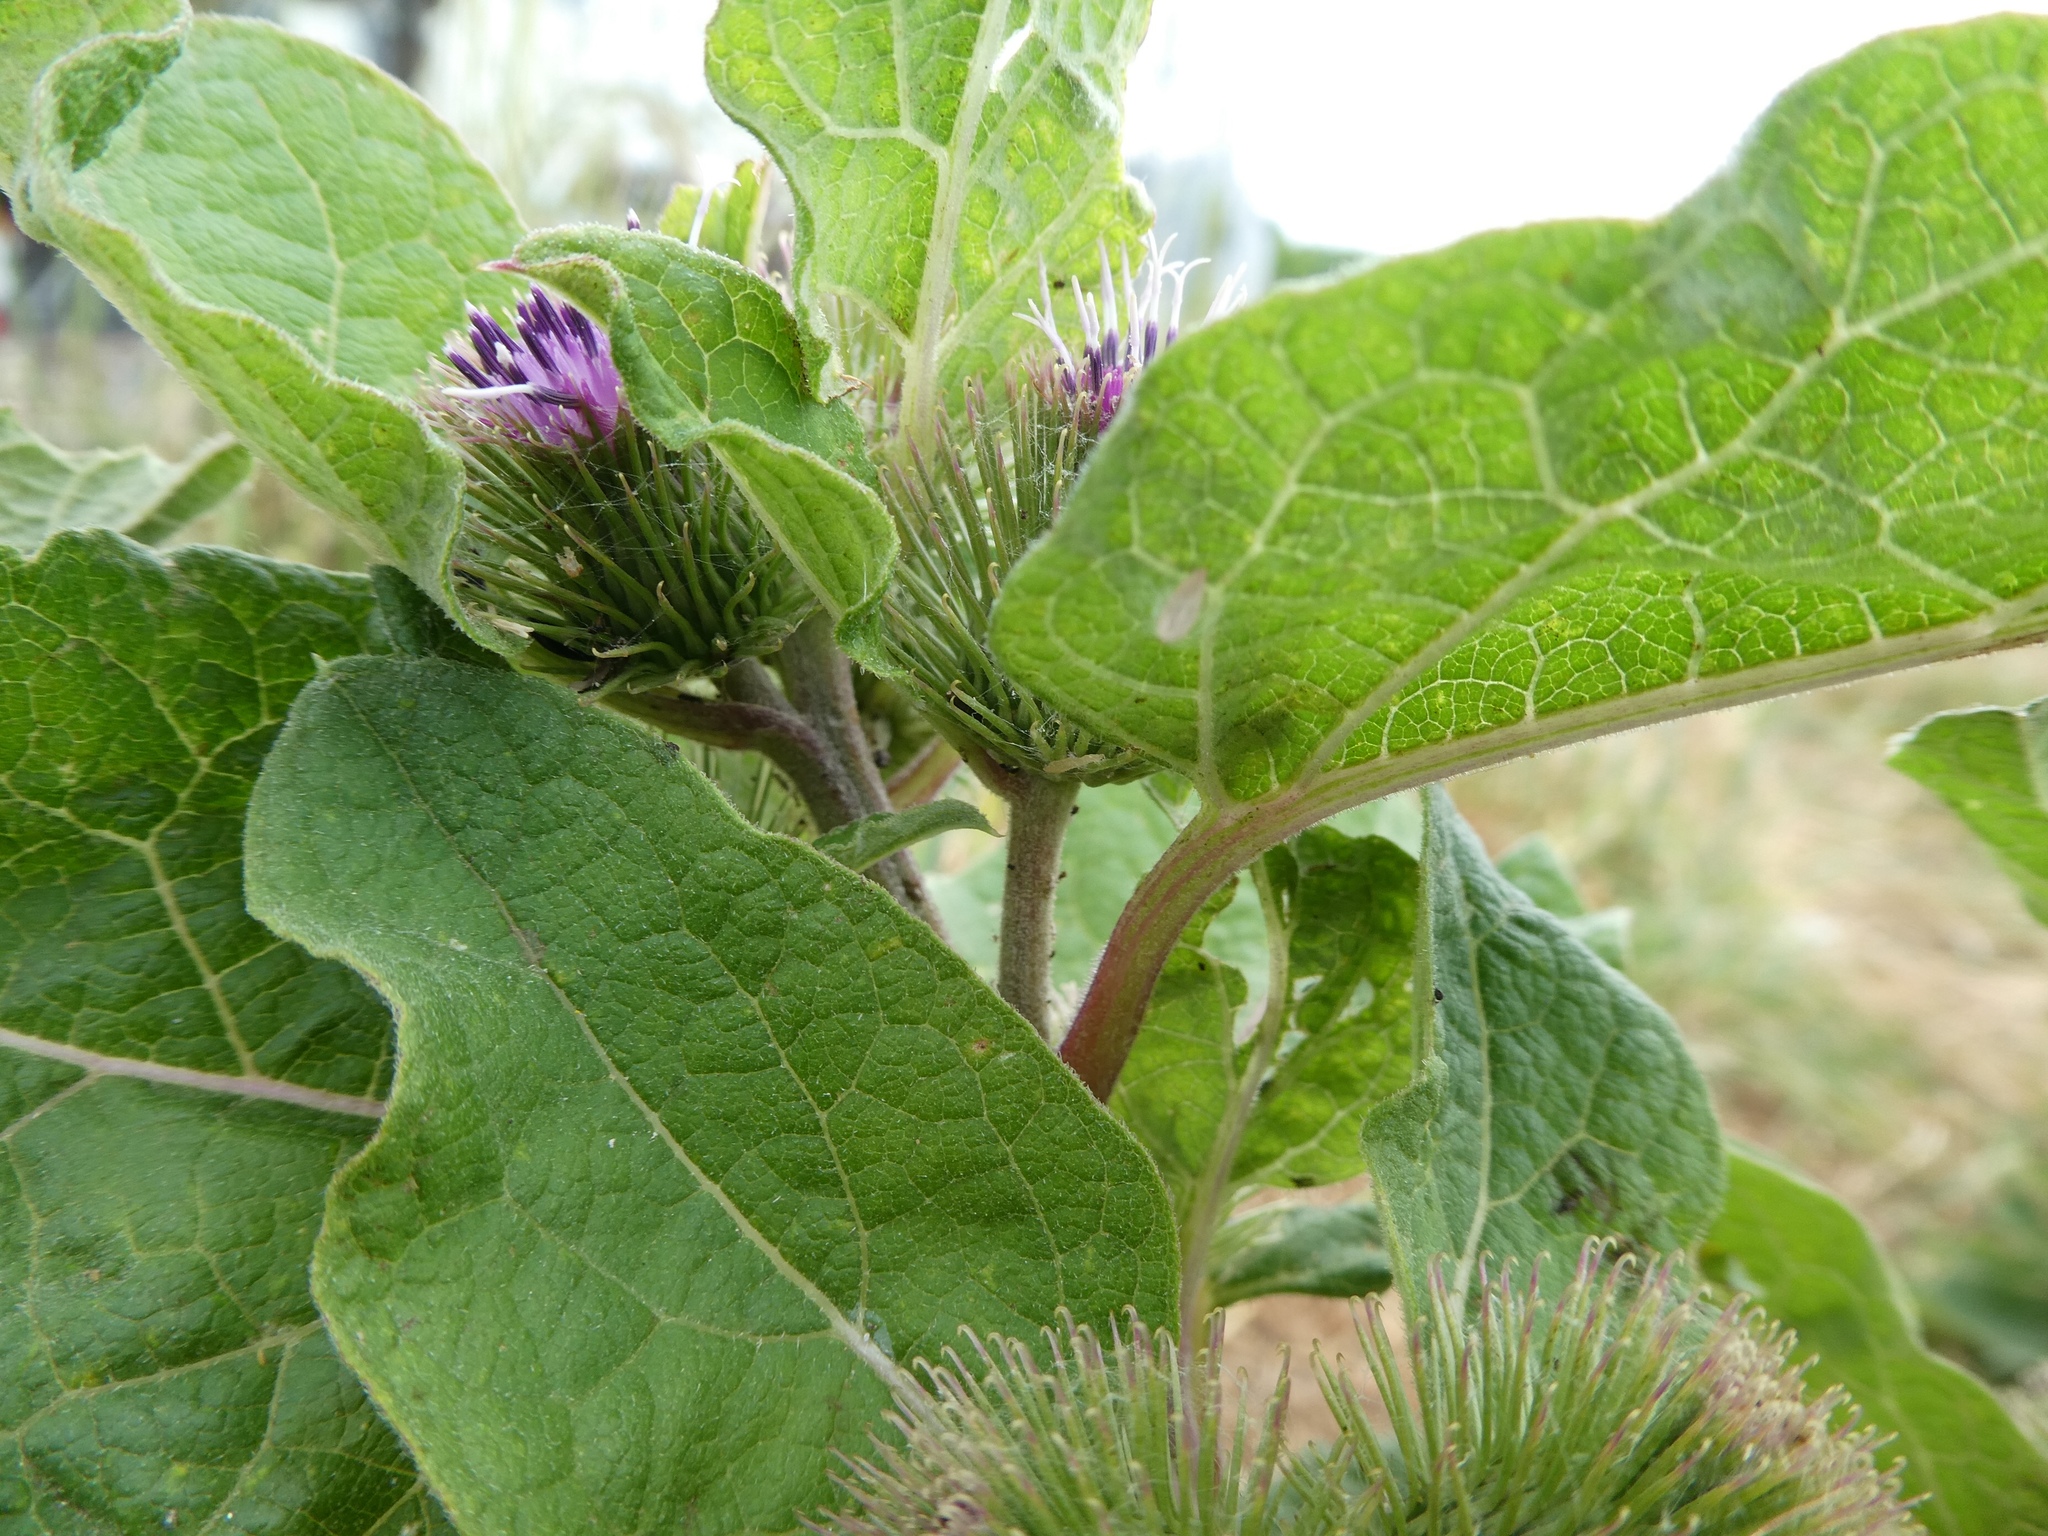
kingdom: Plantae
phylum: Tracheophyta
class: Magnoliopsida
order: Asterales
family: Asteraceae
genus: Arctium
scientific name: Arctium minus
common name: Lesser burdock
